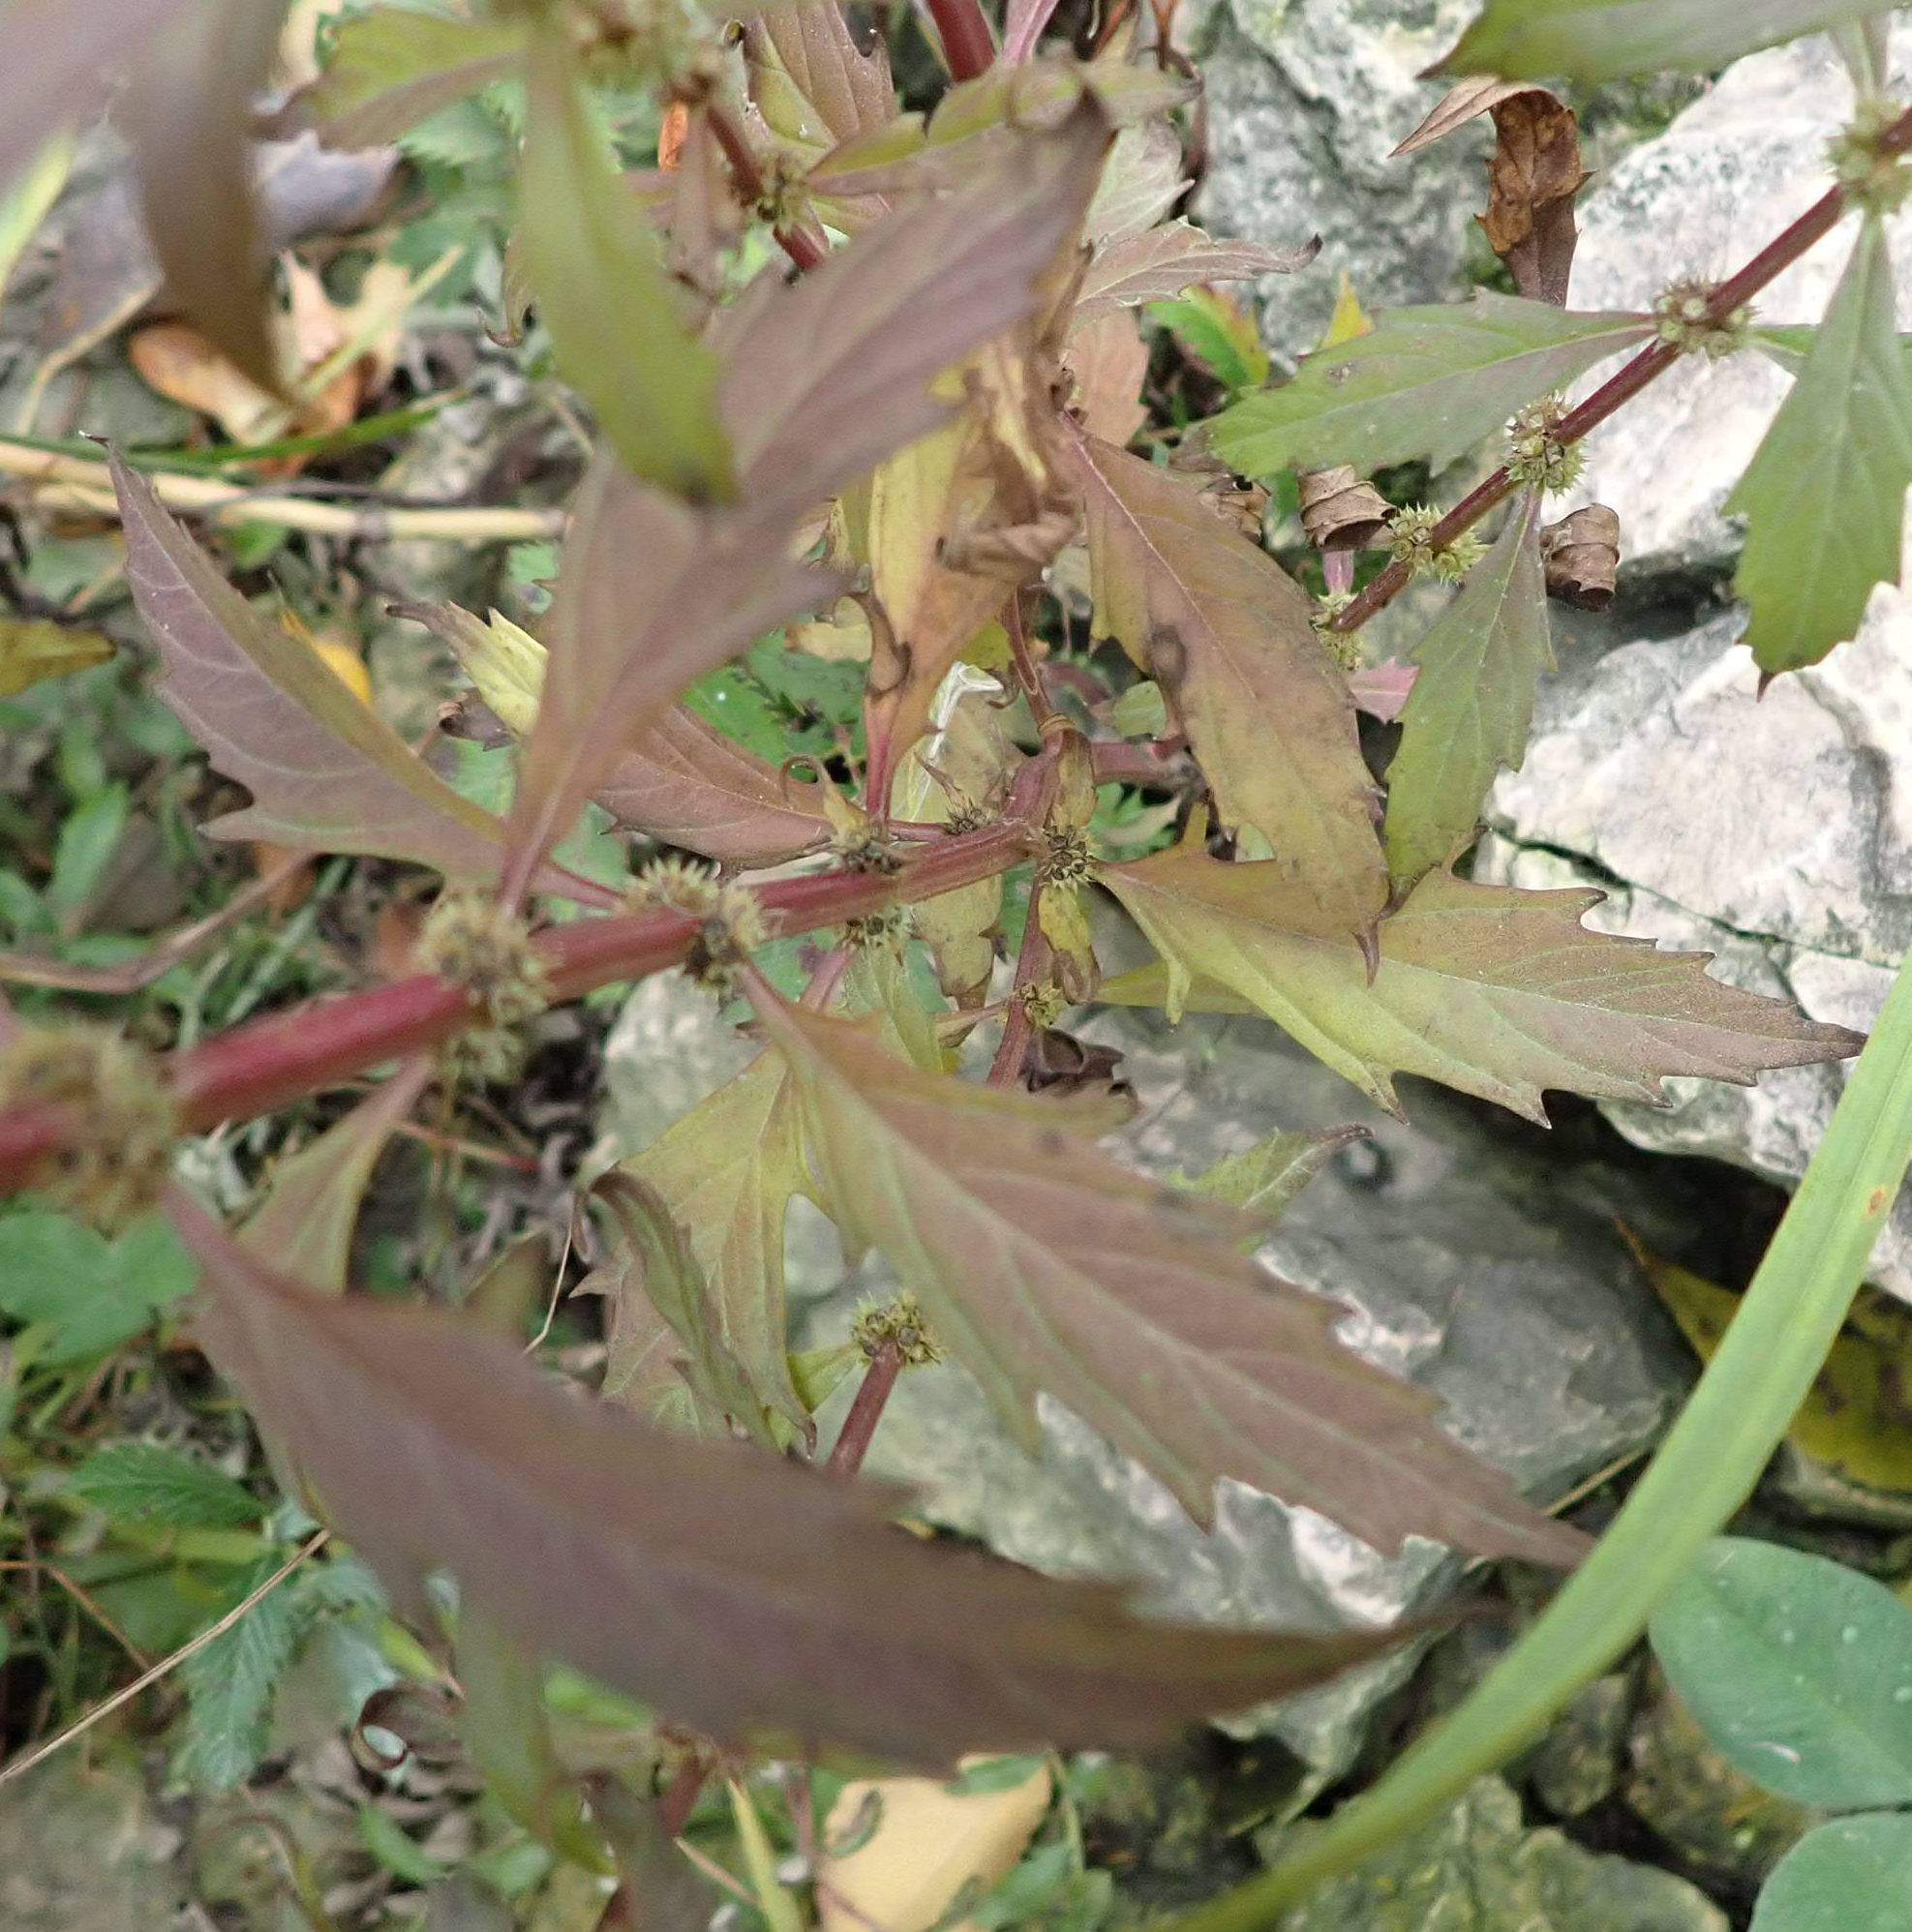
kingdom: Plantae
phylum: Tracheophyta
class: Magnoliopsida
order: Lamiales
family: Lamiaceae
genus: Lycopus
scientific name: Lycopus uniflorus
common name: Northern bugleweed
